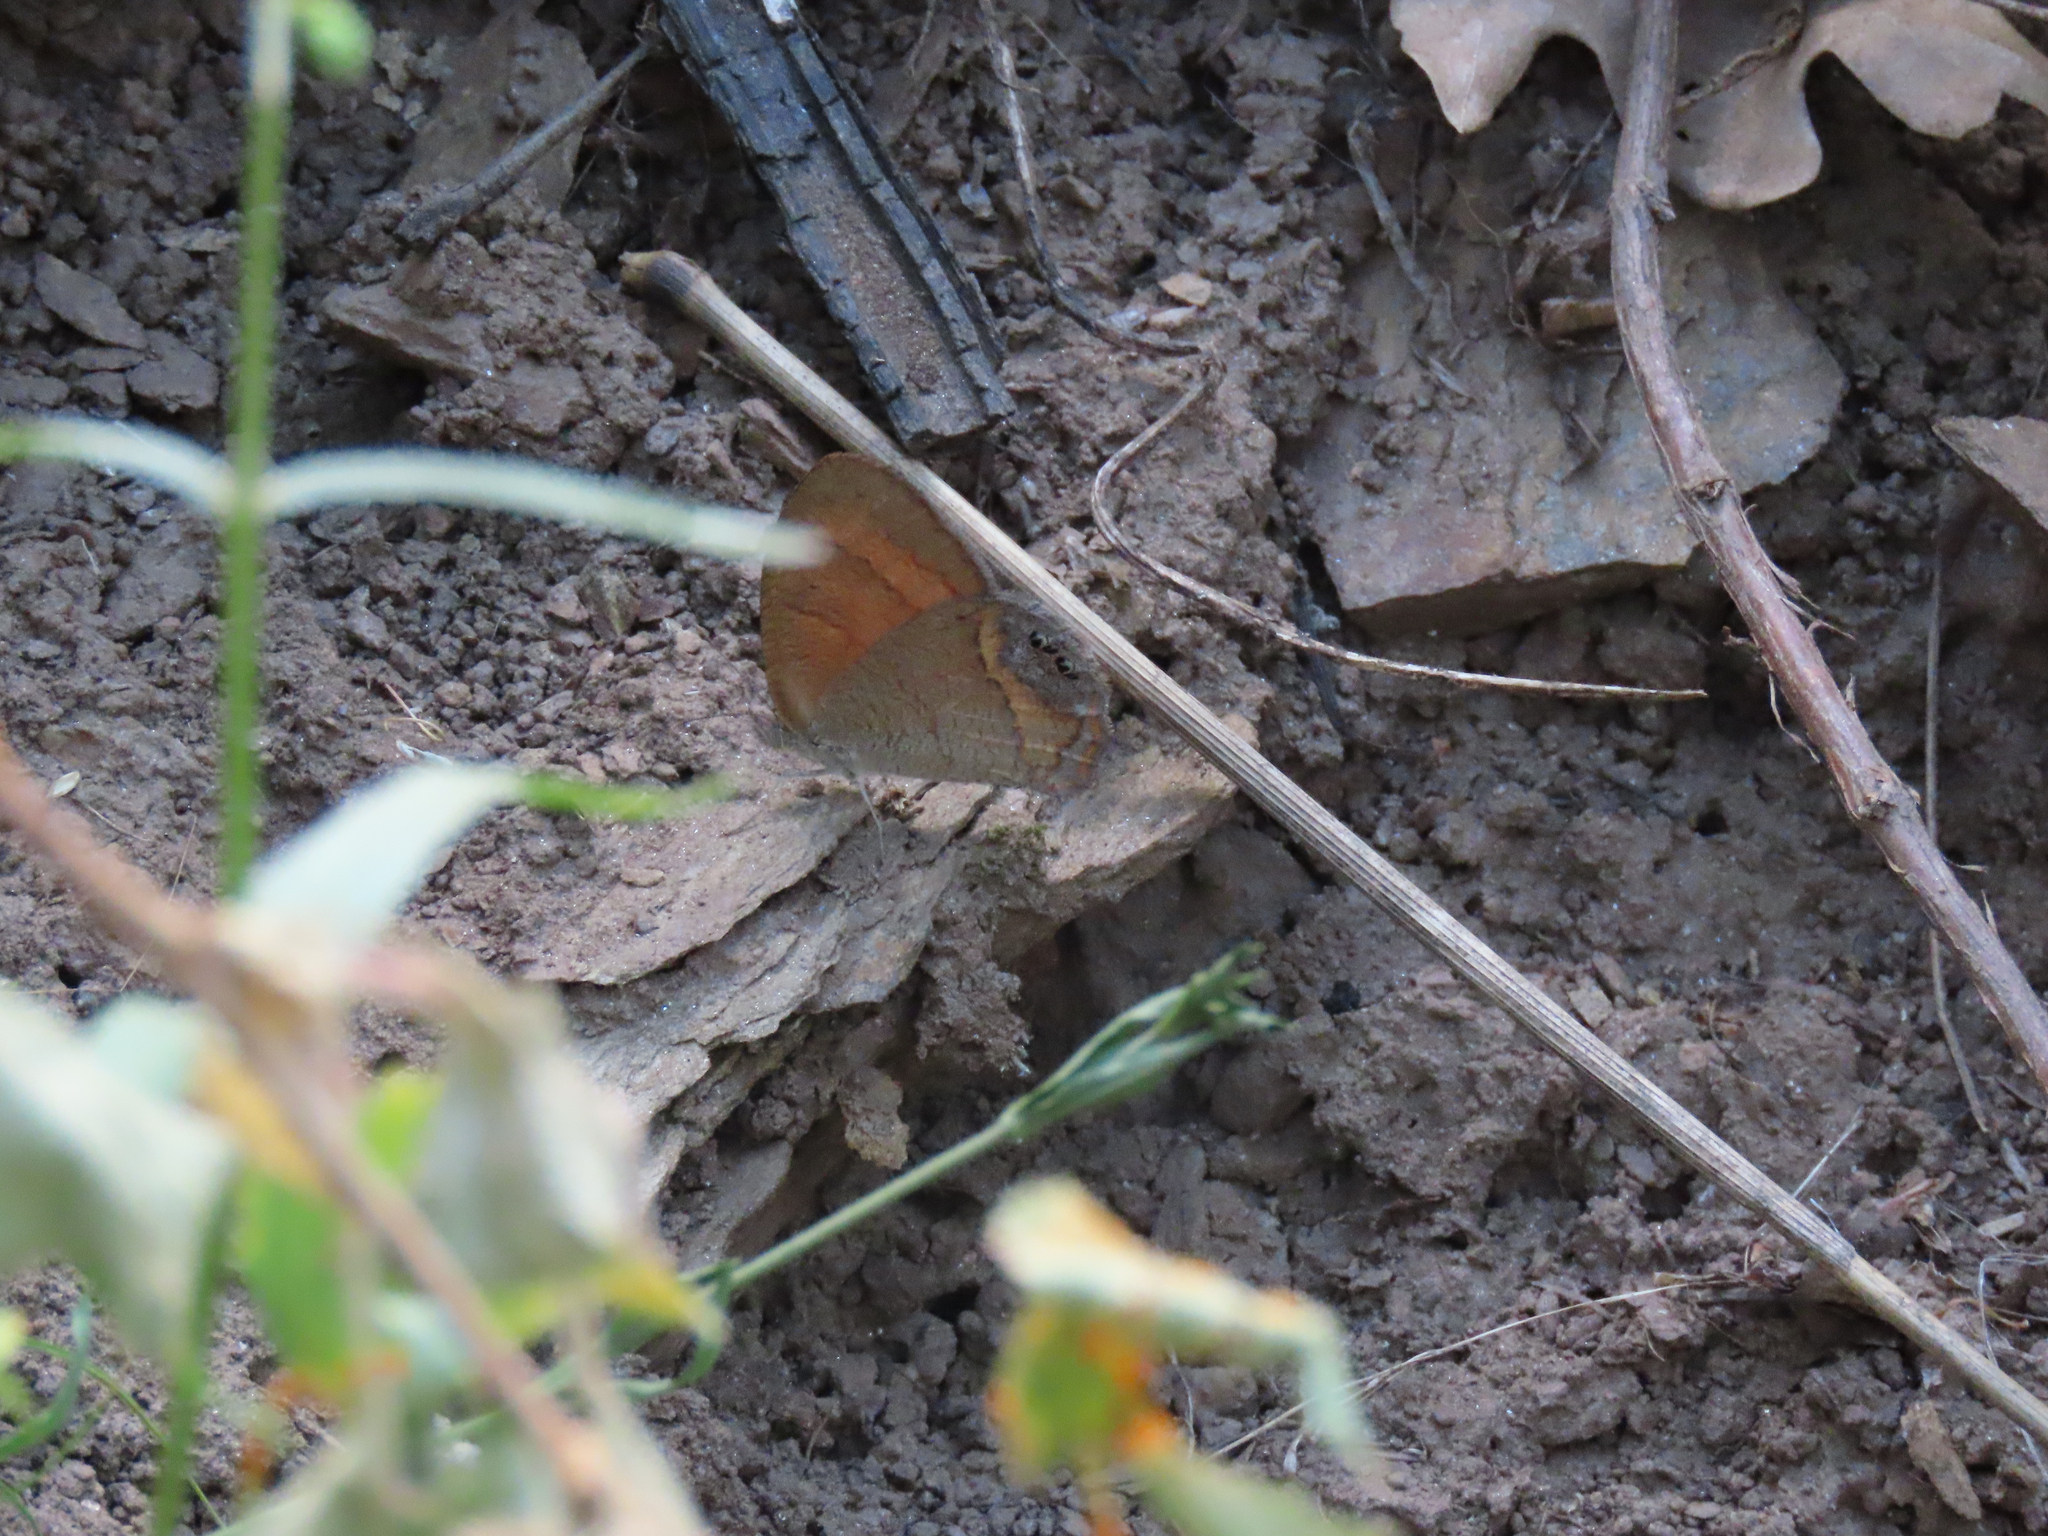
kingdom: Animalia
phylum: Arthropoda
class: Insecta
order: Lepidoptera
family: Nymphalidae
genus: Euptychia
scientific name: Euptychia pyracmon
